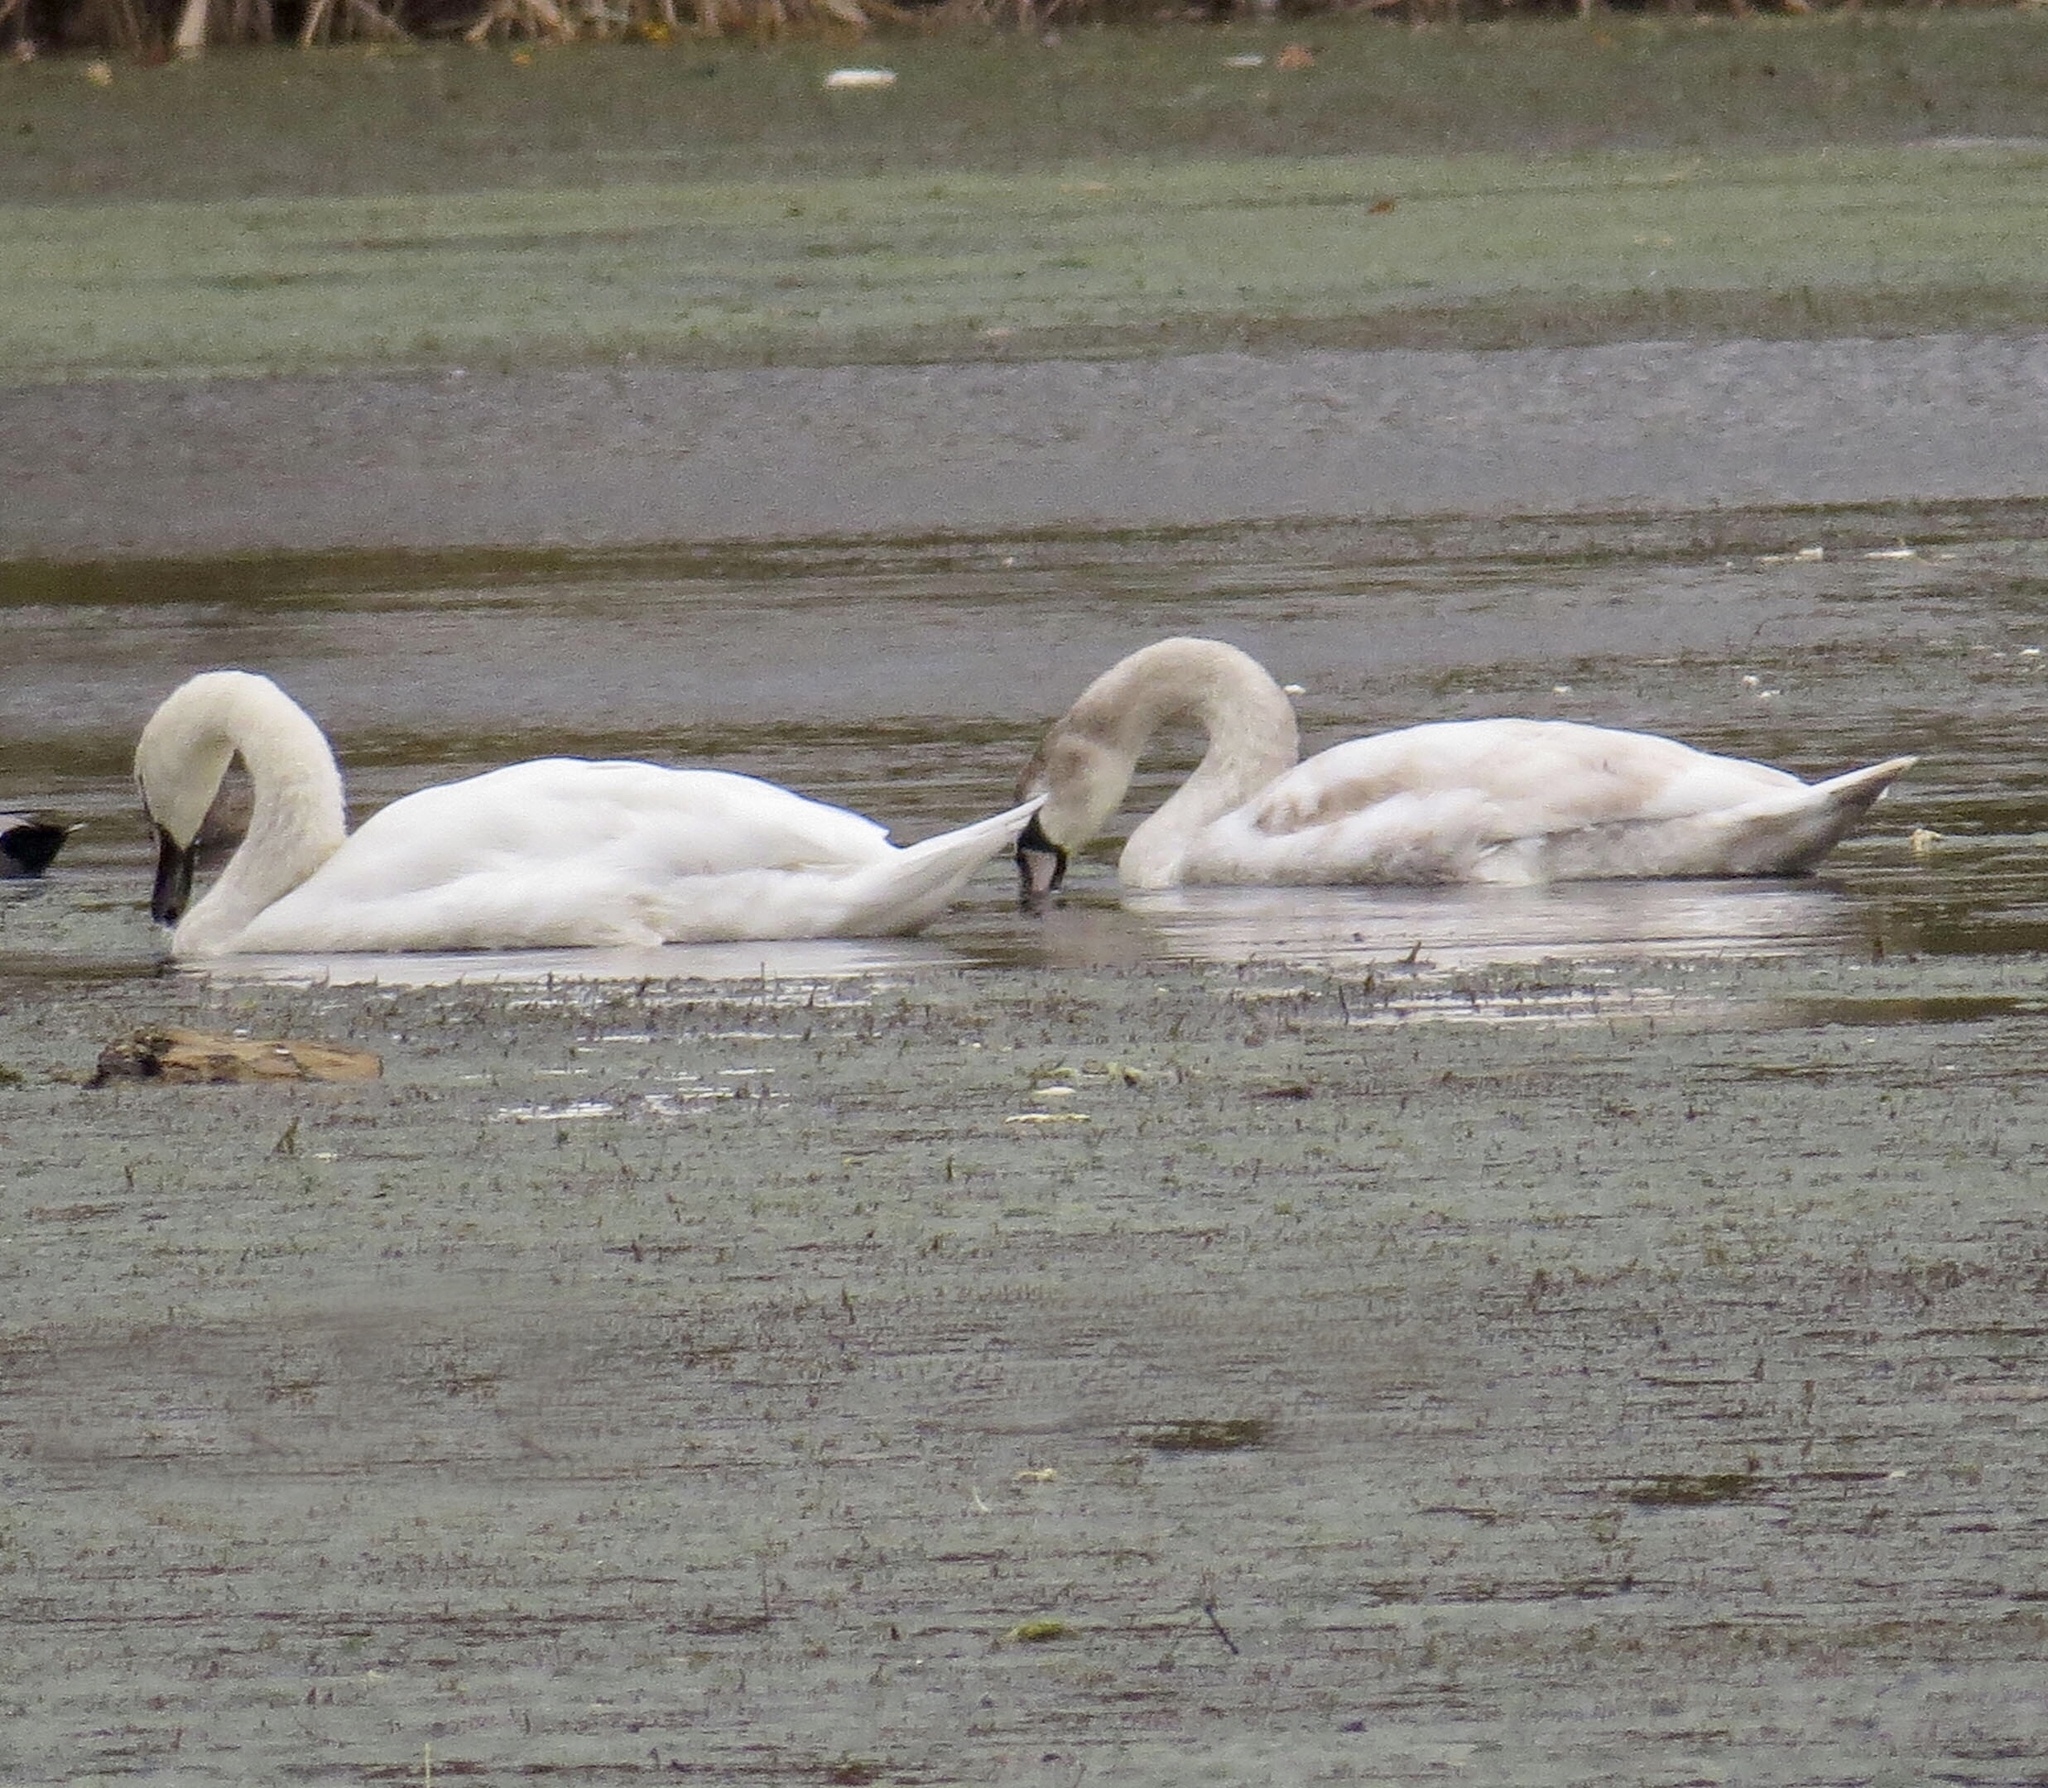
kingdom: Animalia
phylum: Chordata
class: Aves
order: Anseriformes
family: Anatidae
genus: Cygnus
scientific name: Cygnus olor
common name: Mute swan
